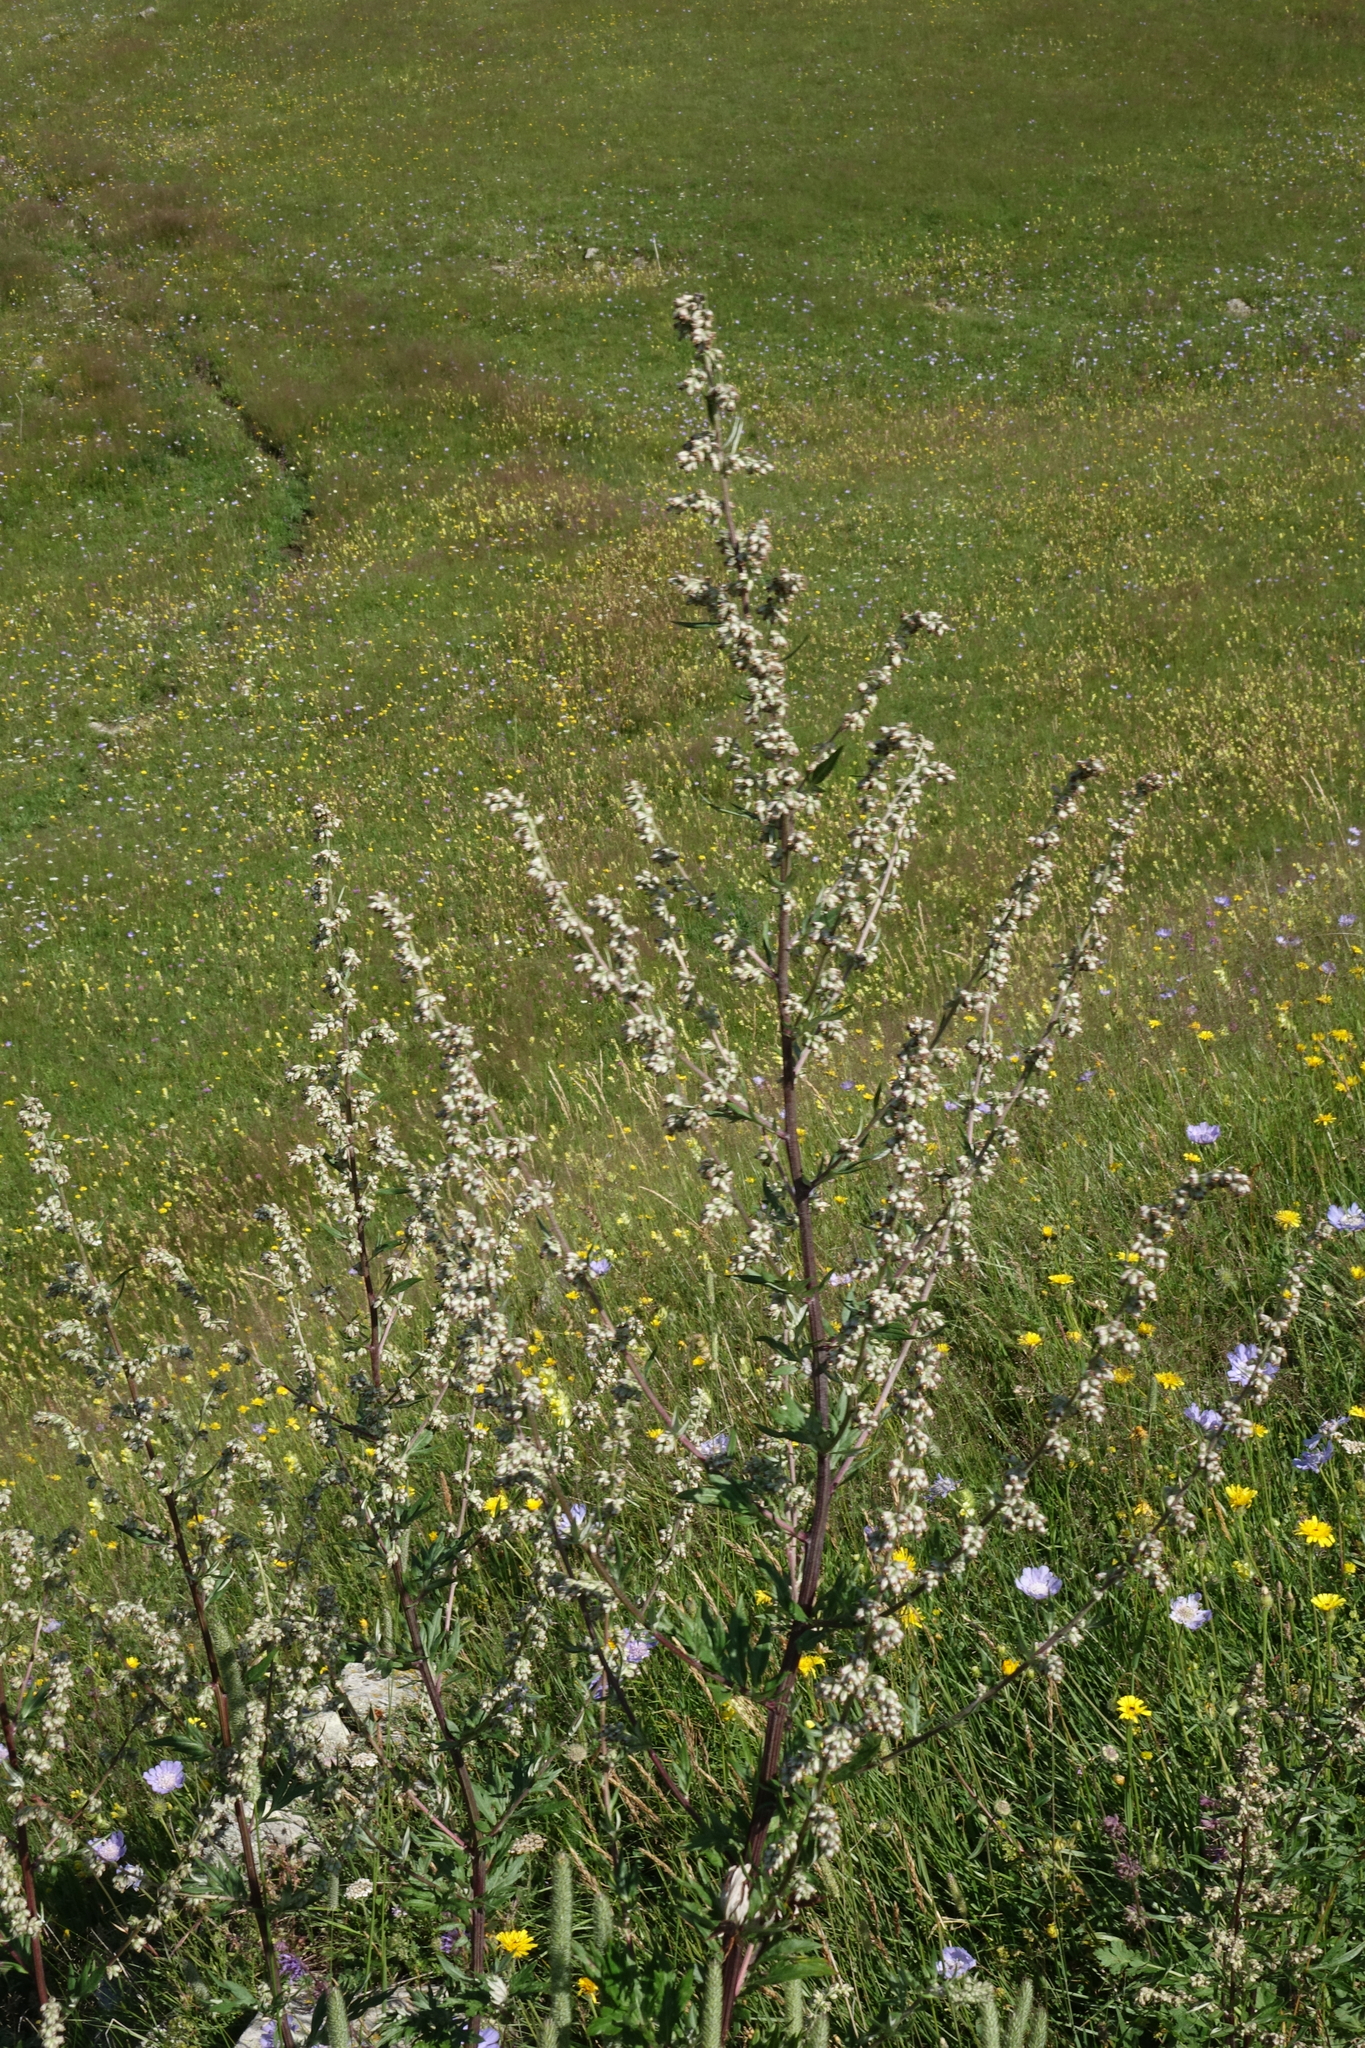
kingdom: Plantae
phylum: Tracheophyta
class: Magnoliopsida
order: Asterales
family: Asteraceae
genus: Artemisia
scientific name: Artemisia vulgaris
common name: Mugwort
